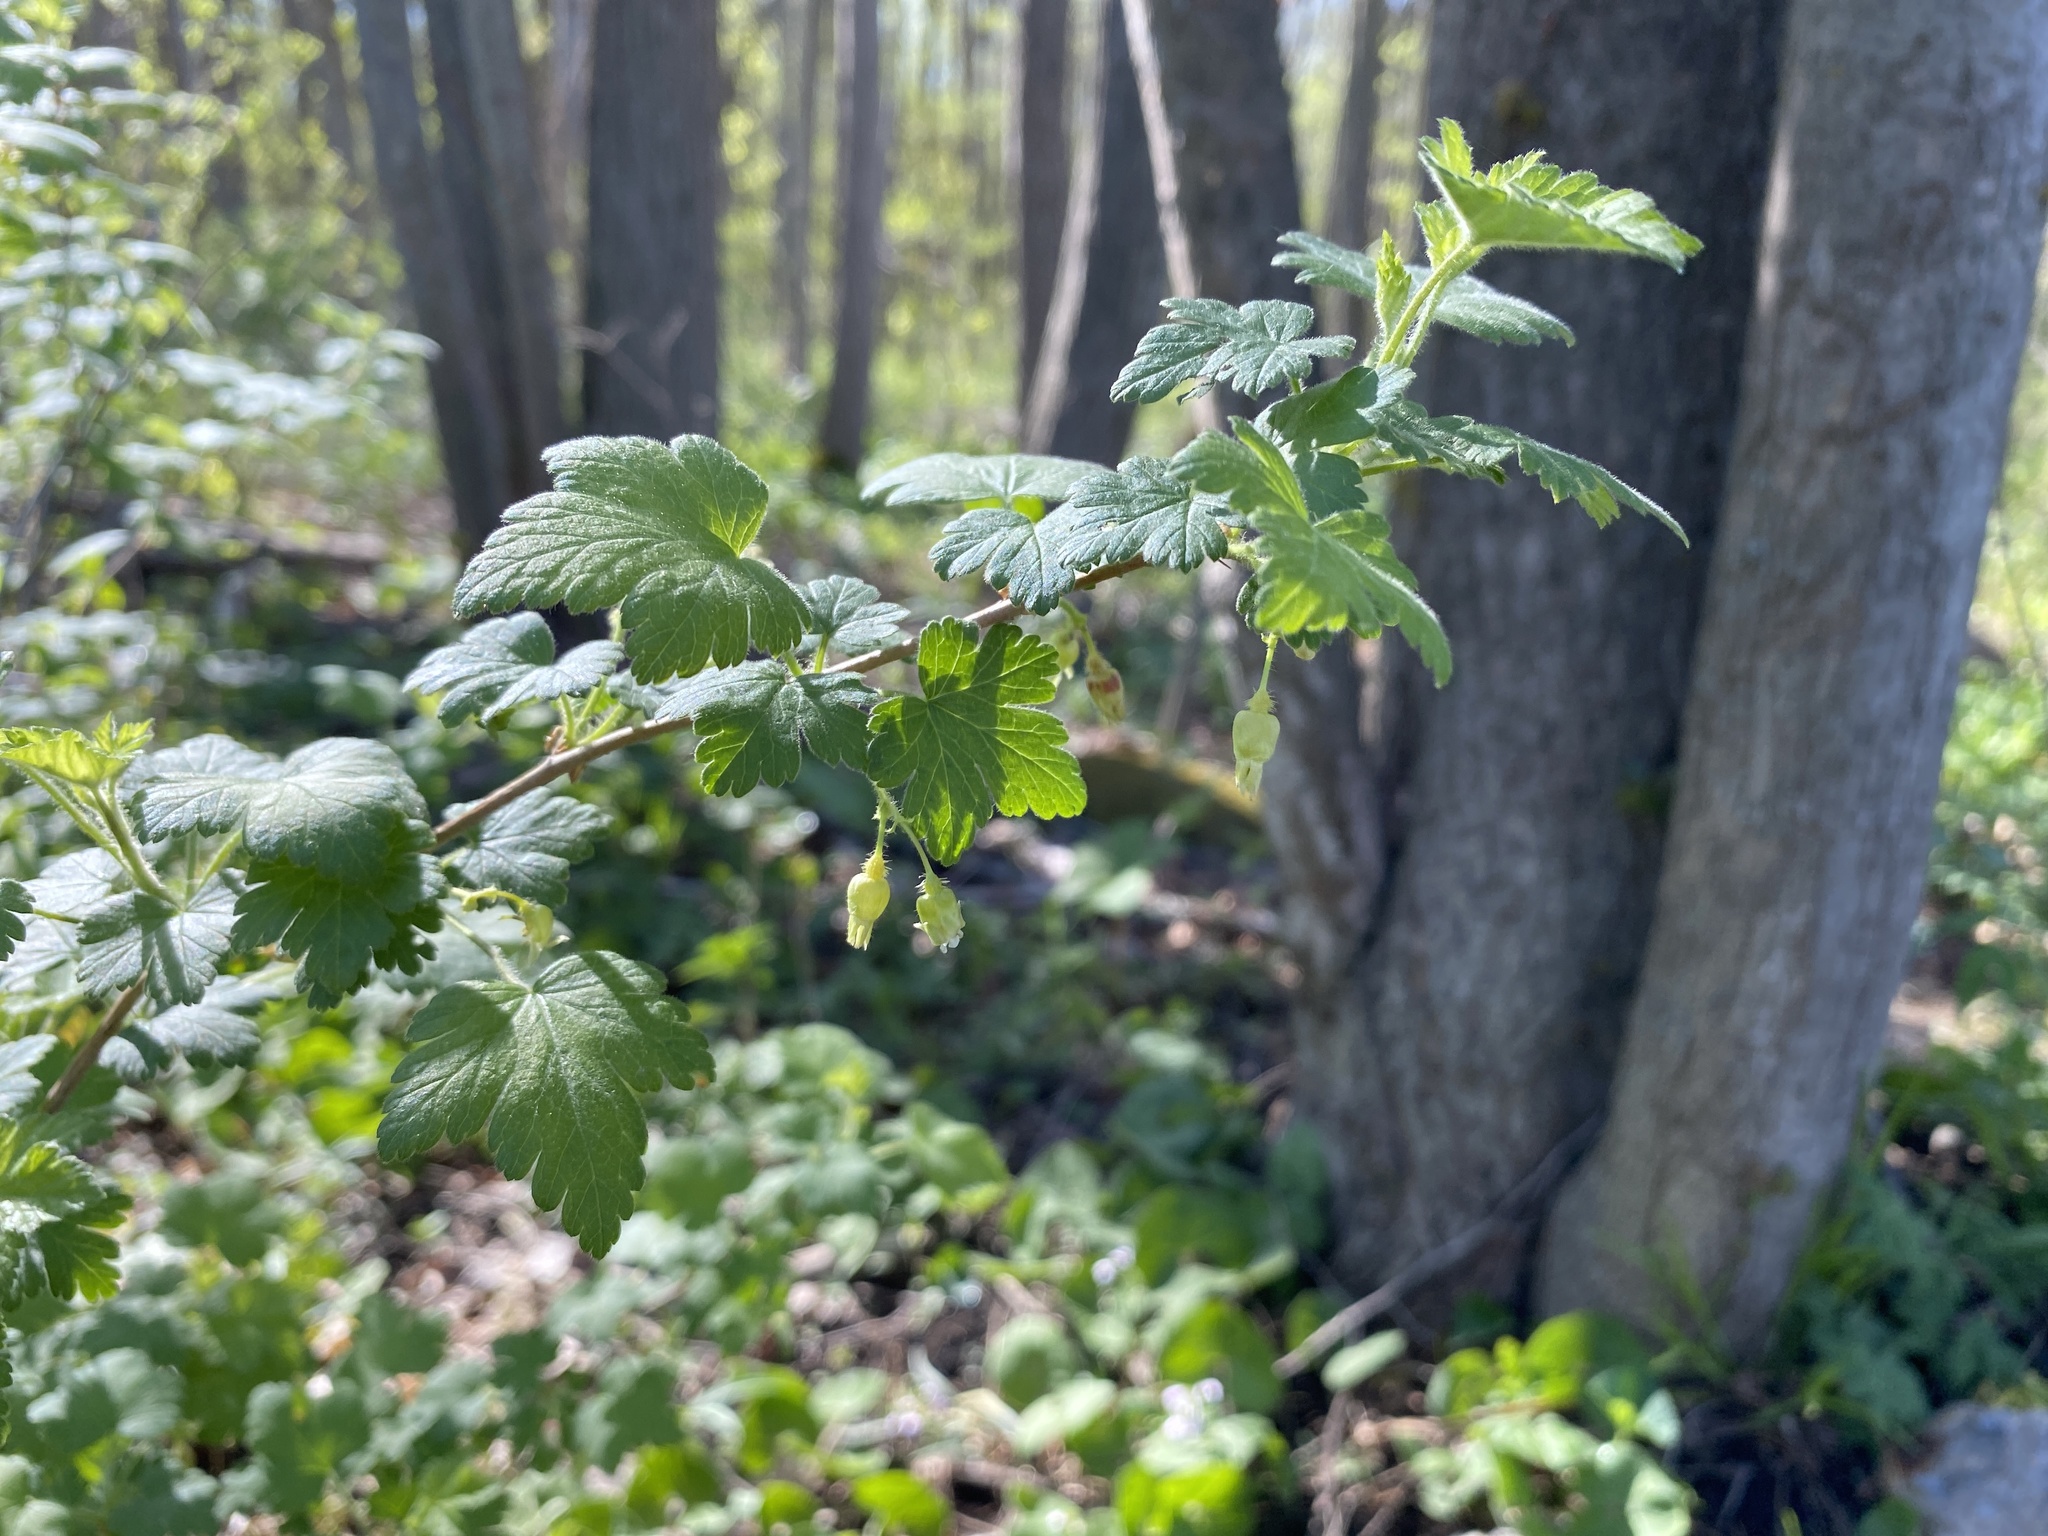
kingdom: Plantae
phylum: Tracheophyta
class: Magnoliopsida
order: Saxifragales
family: Grossulariaceae
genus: Ribes
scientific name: Ribes cynosbati
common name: American gooseberry
